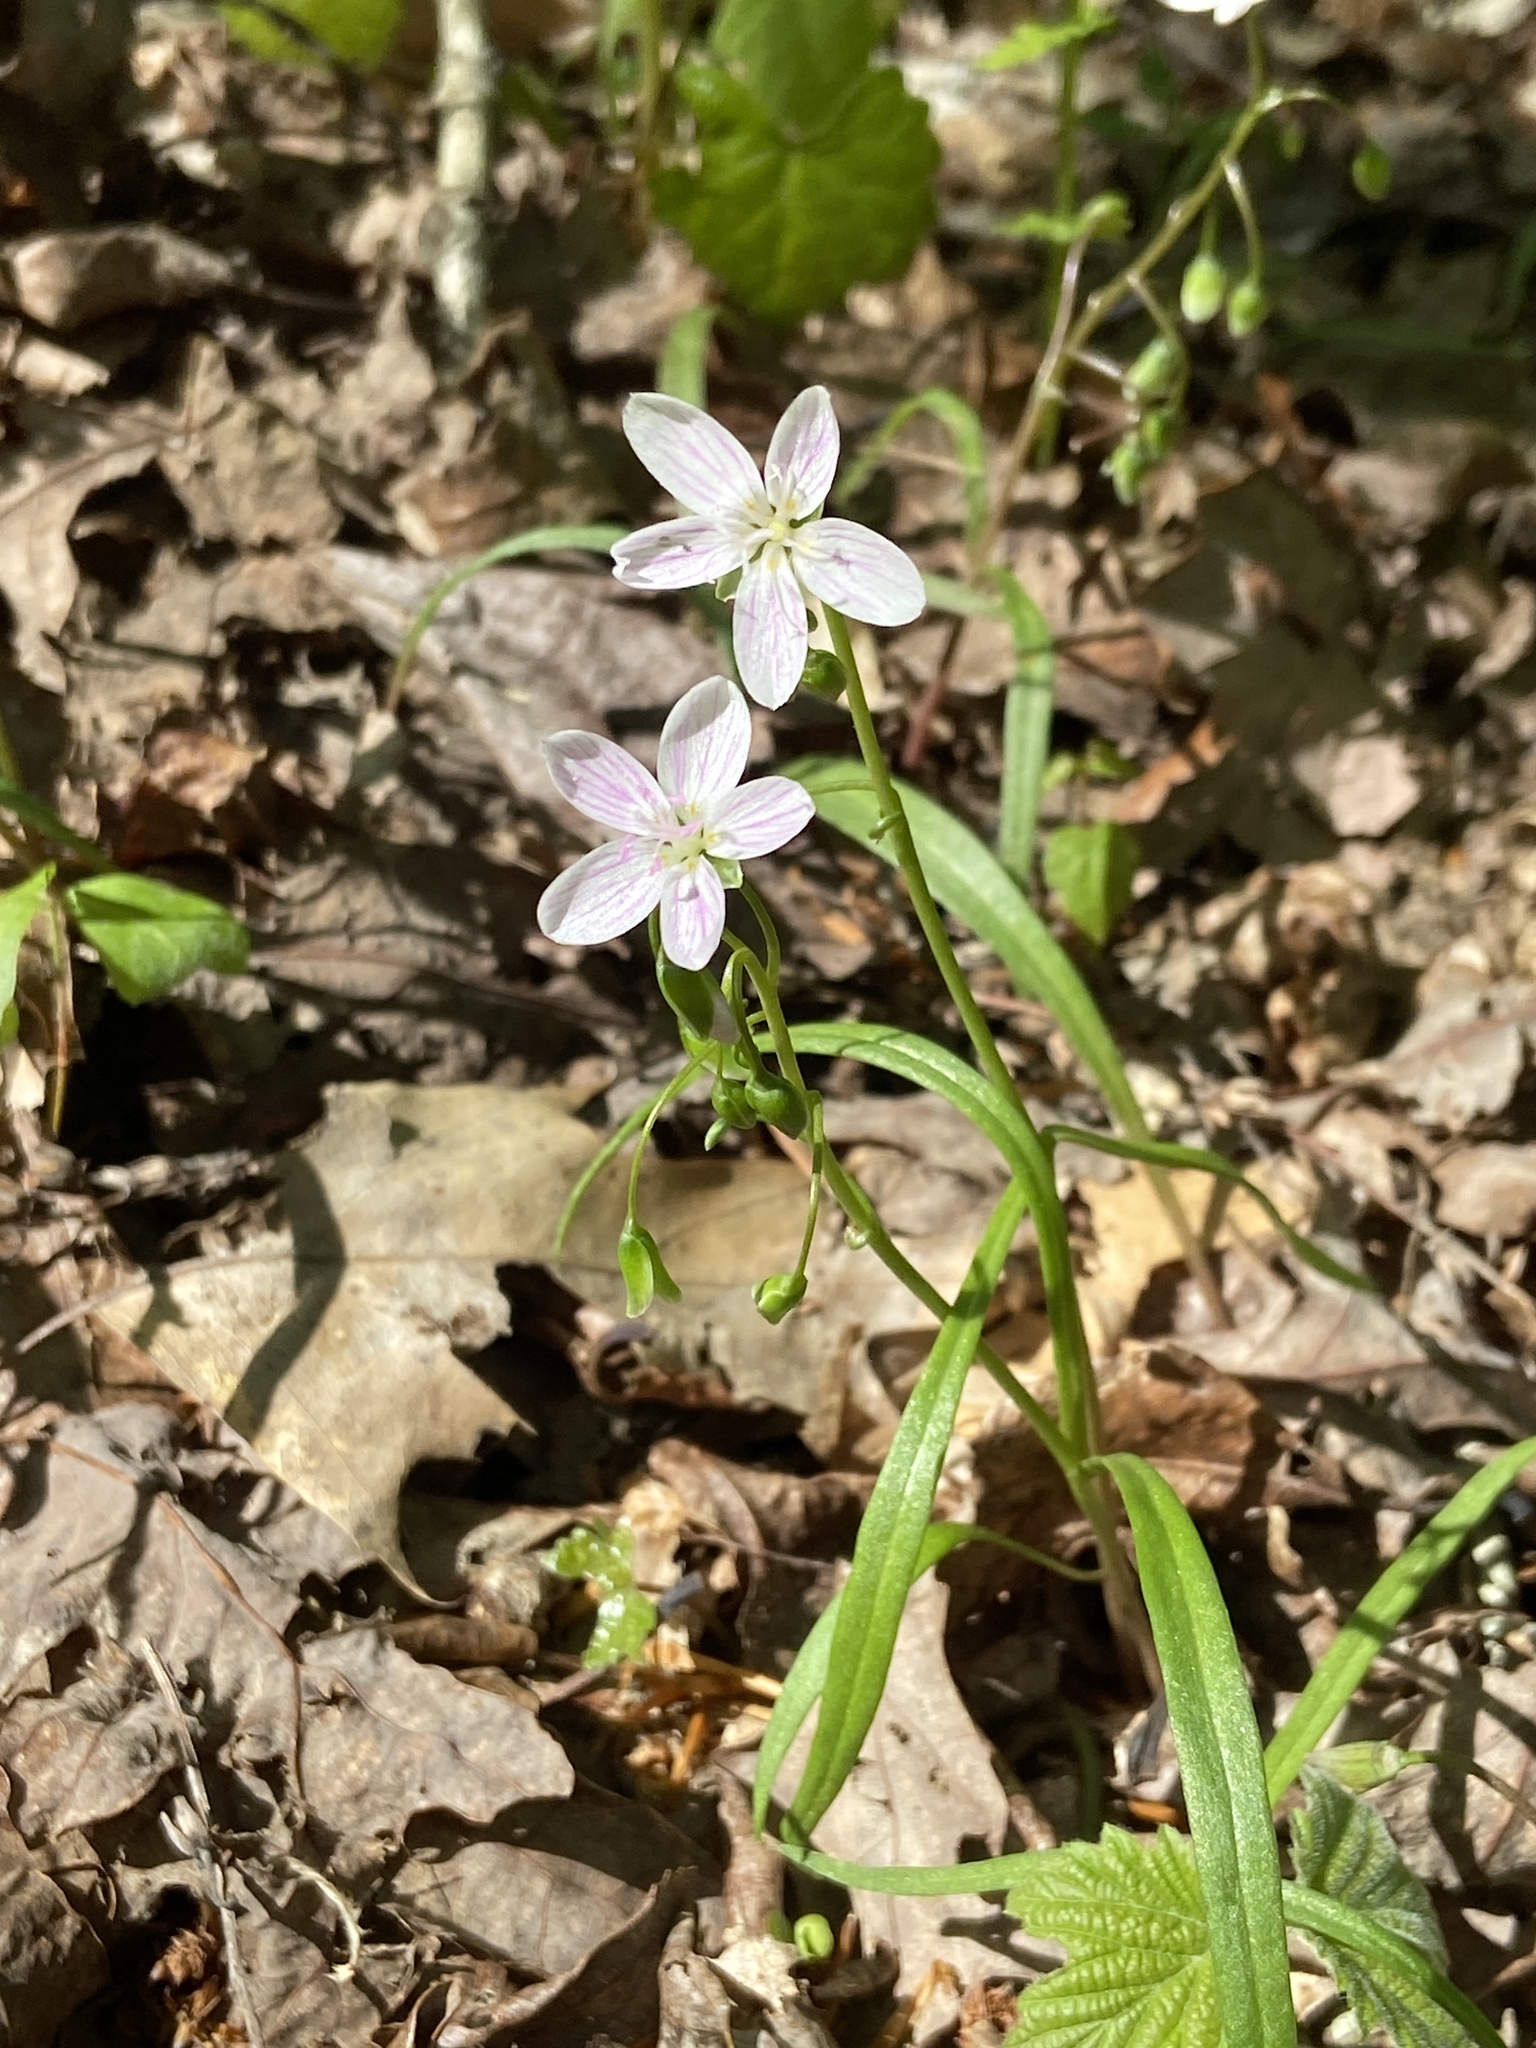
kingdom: Plantae
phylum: Tracheophyta
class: Magnoliopsida
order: Caryophyllales
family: Montiaceae
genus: Claytonia
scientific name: Claytonia virginica
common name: Virginia springbeauty
